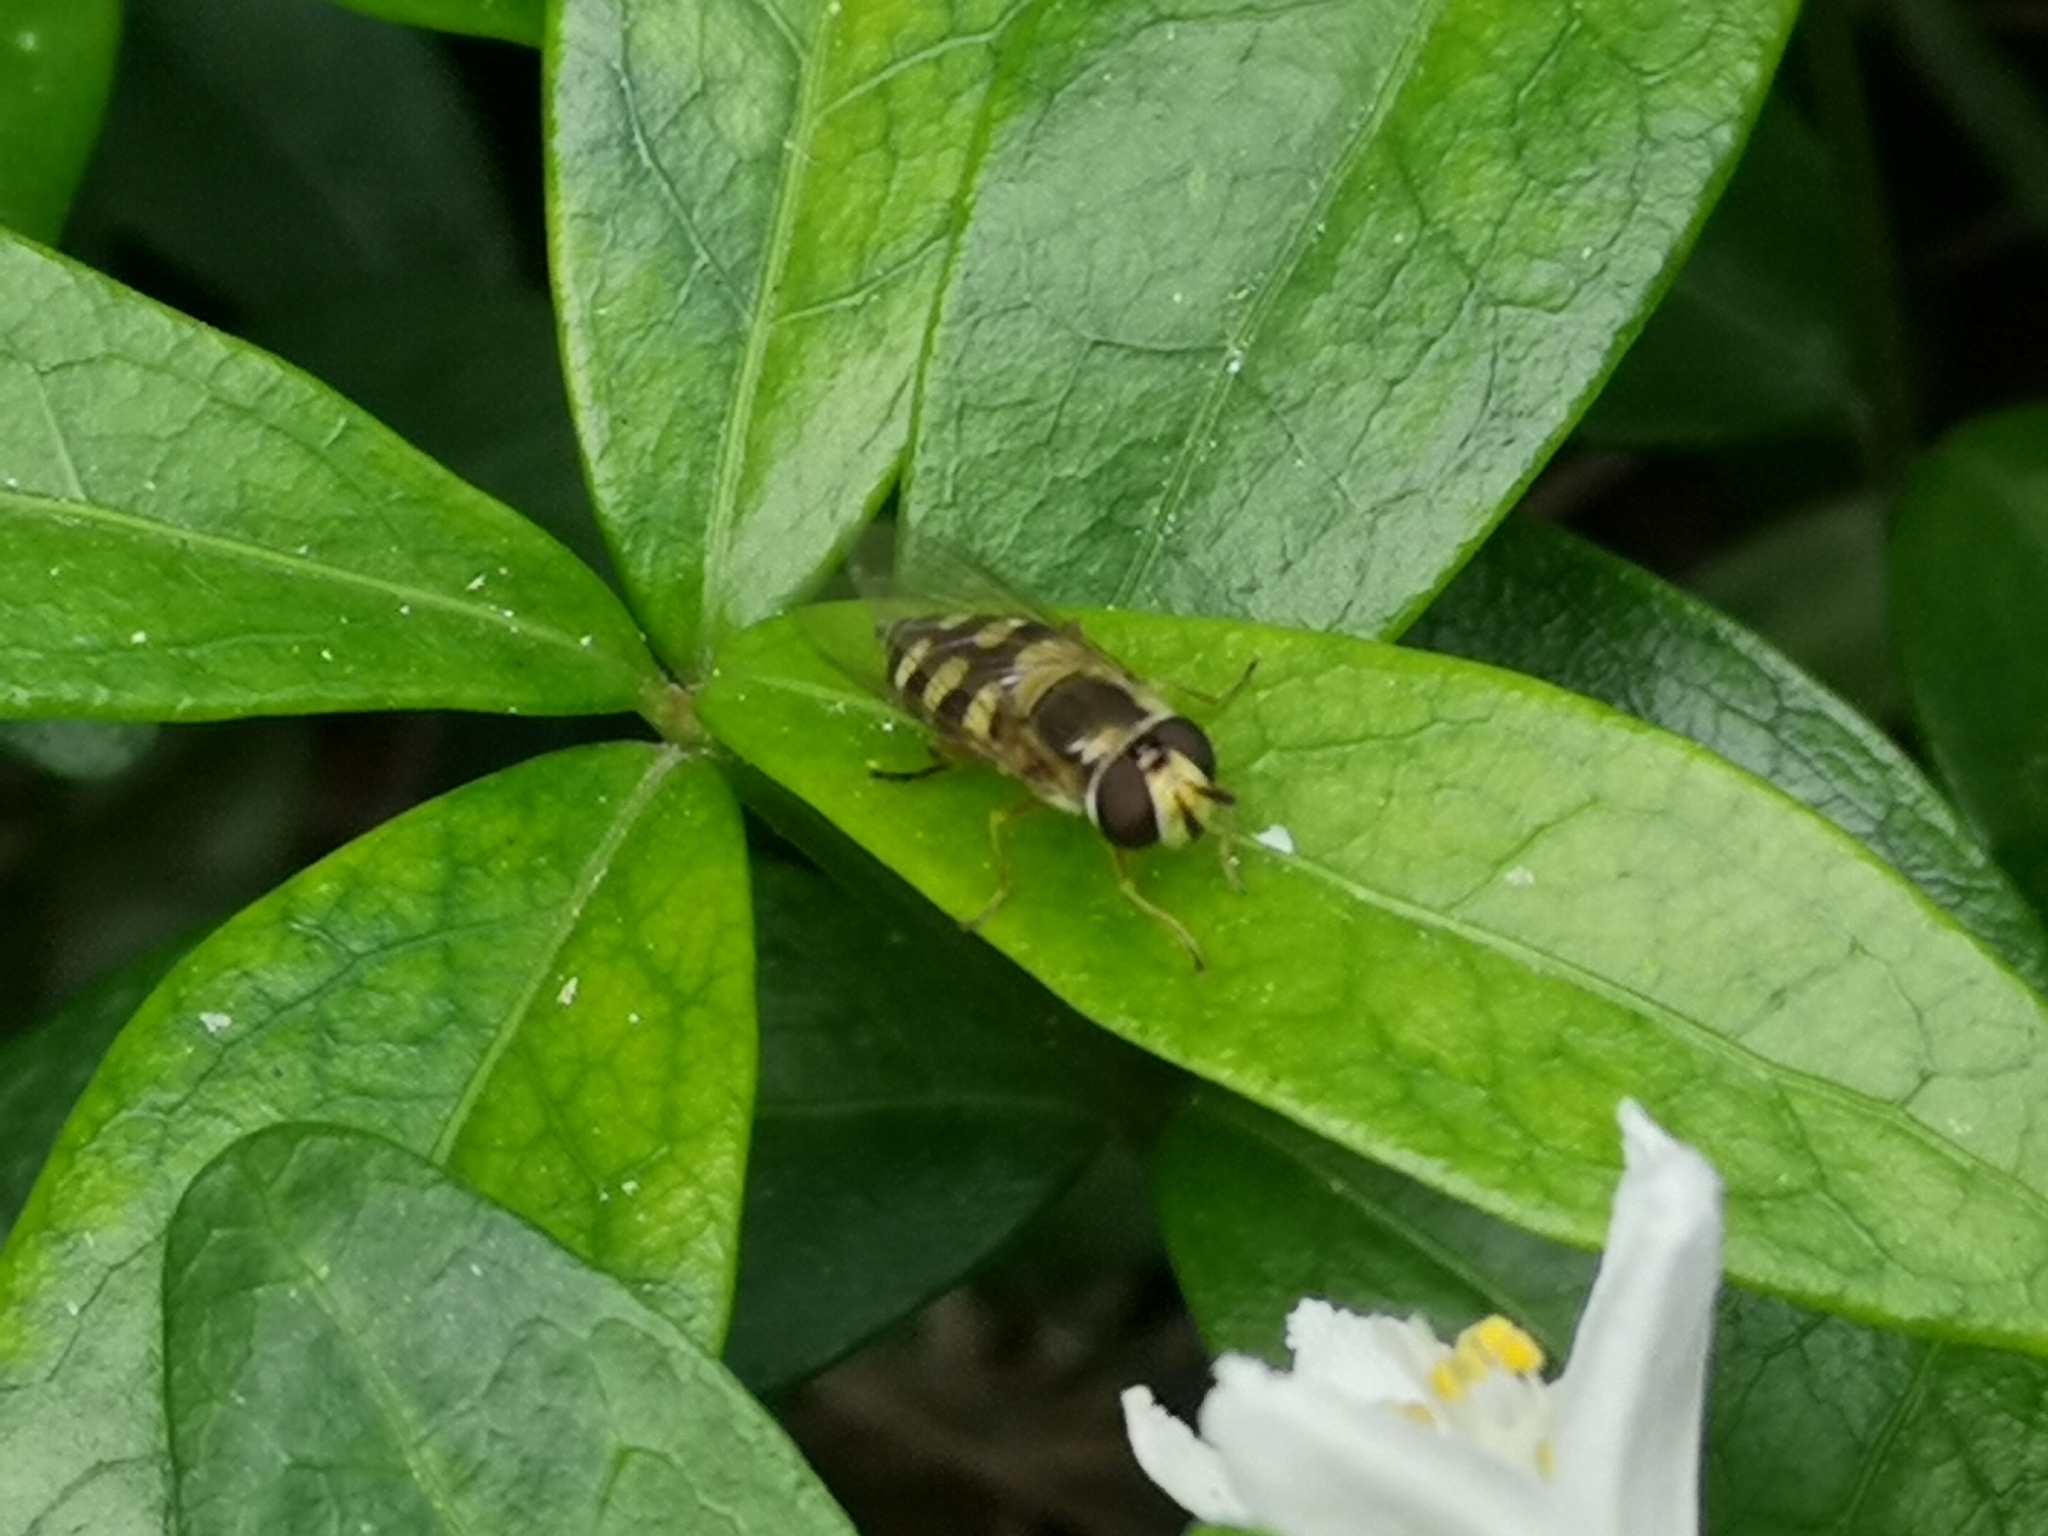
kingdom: Animalia
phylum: Arthropoda
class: Insecta
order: Diptera
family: Syrphidae
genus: Eupeodes
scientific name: Eupeodes corollae
